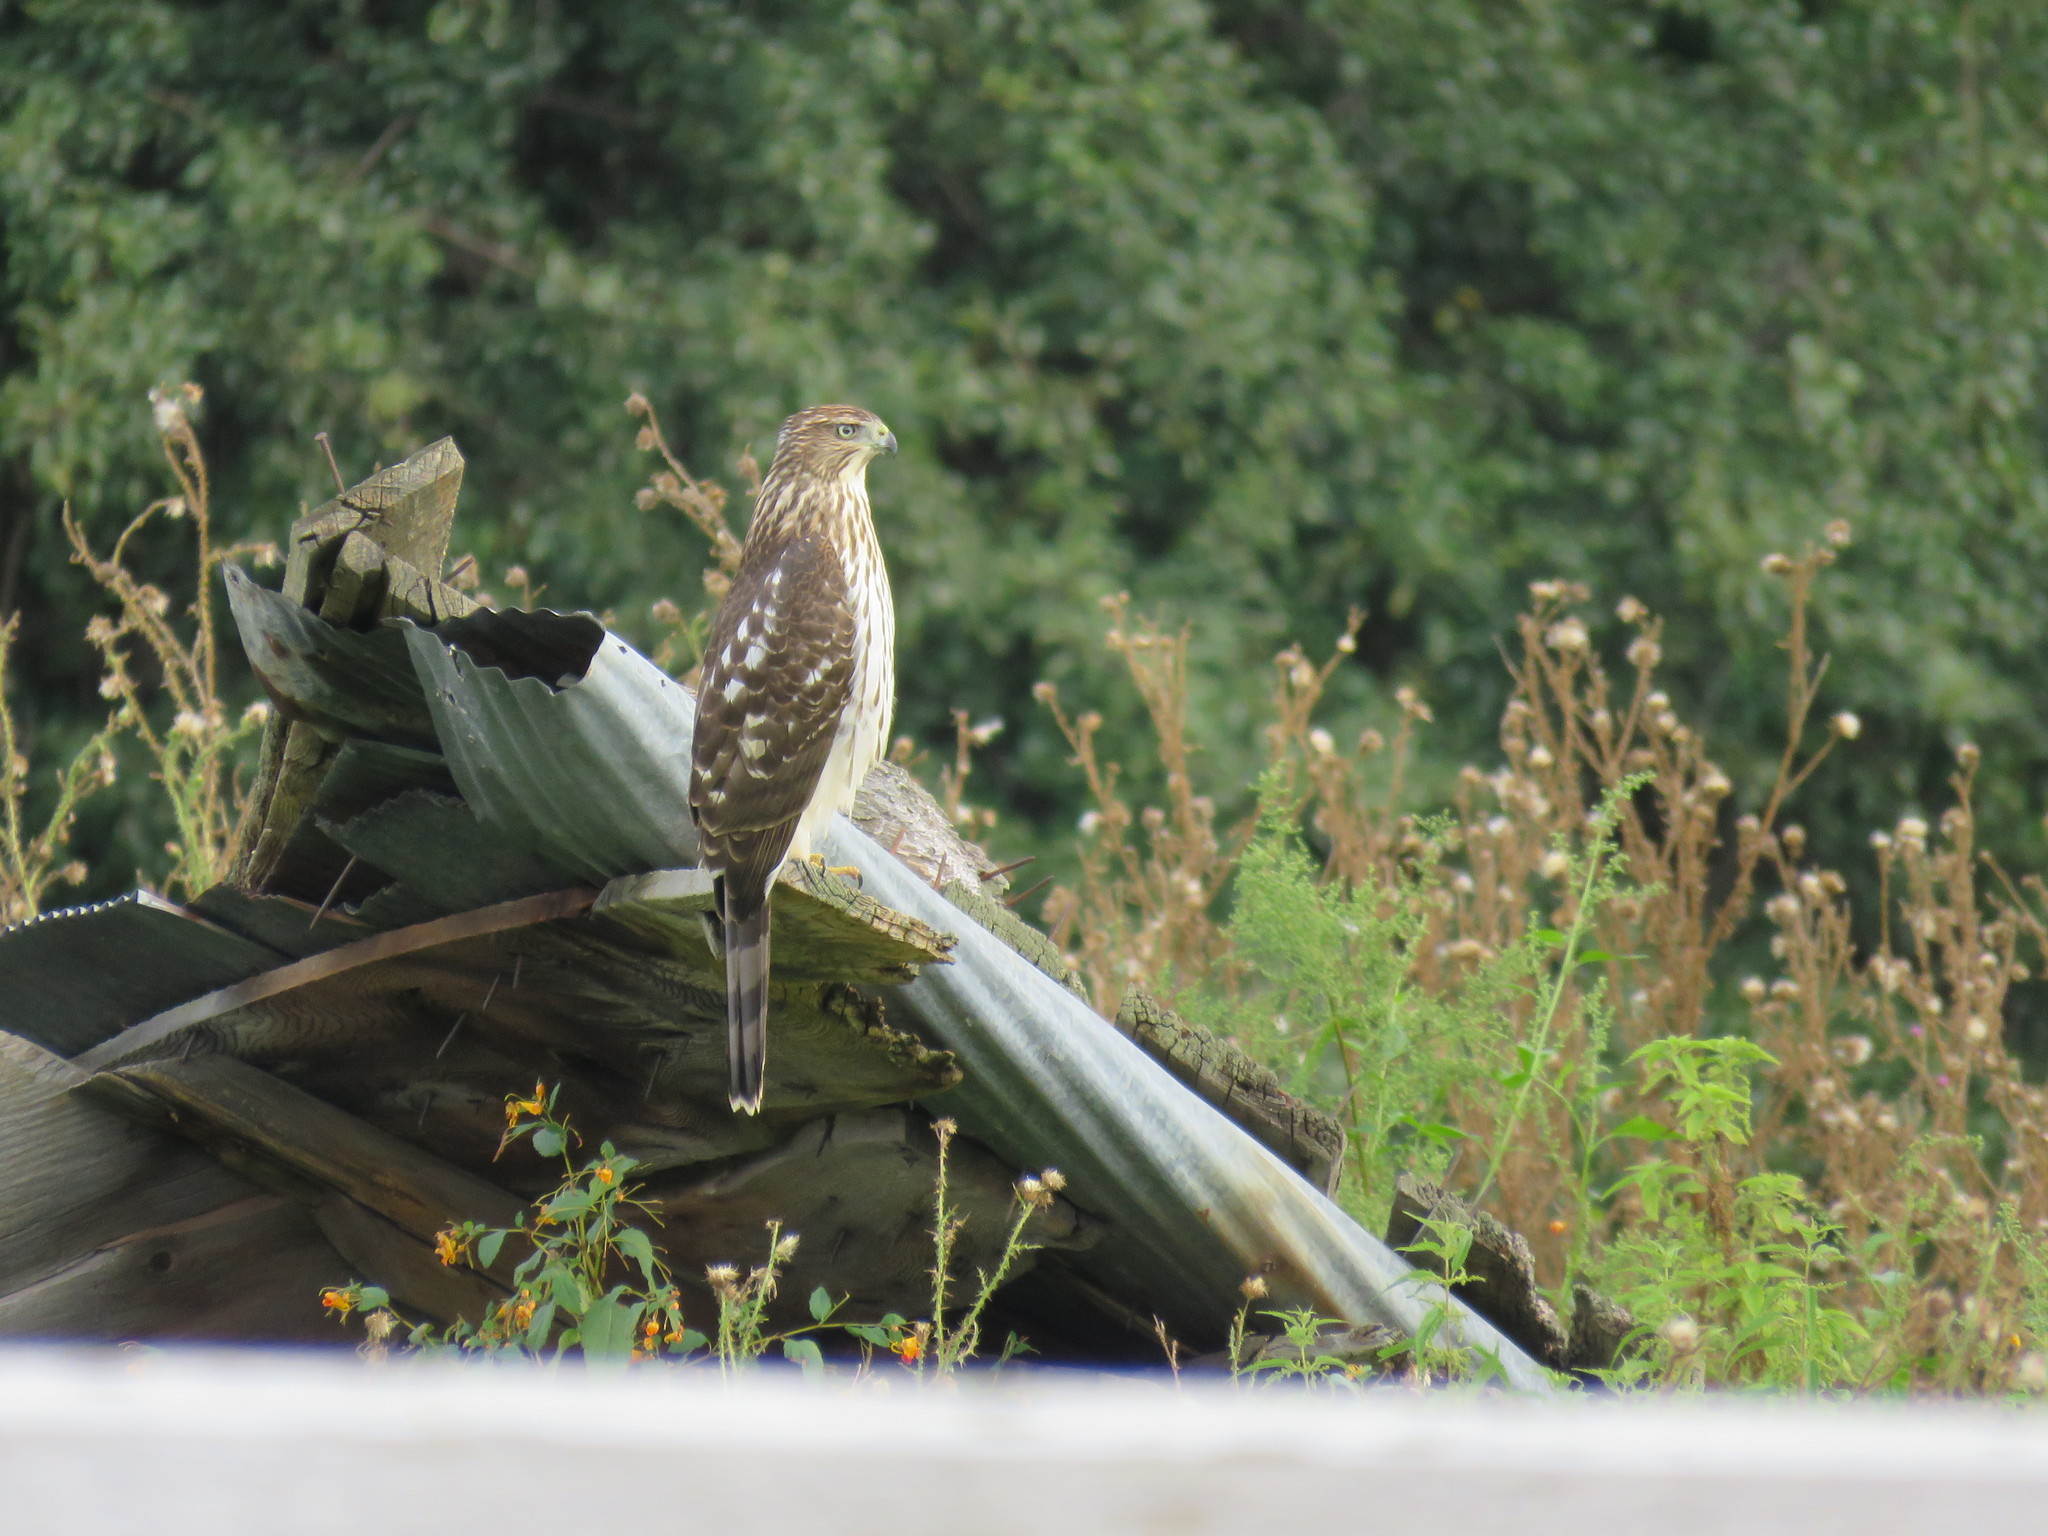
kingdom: Animalia
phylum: Chordata
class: Aves
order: Accipitriformes
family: Accipitridae
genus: Accipiter
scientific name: Accipiter cooperii
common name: Cooper's hawk
